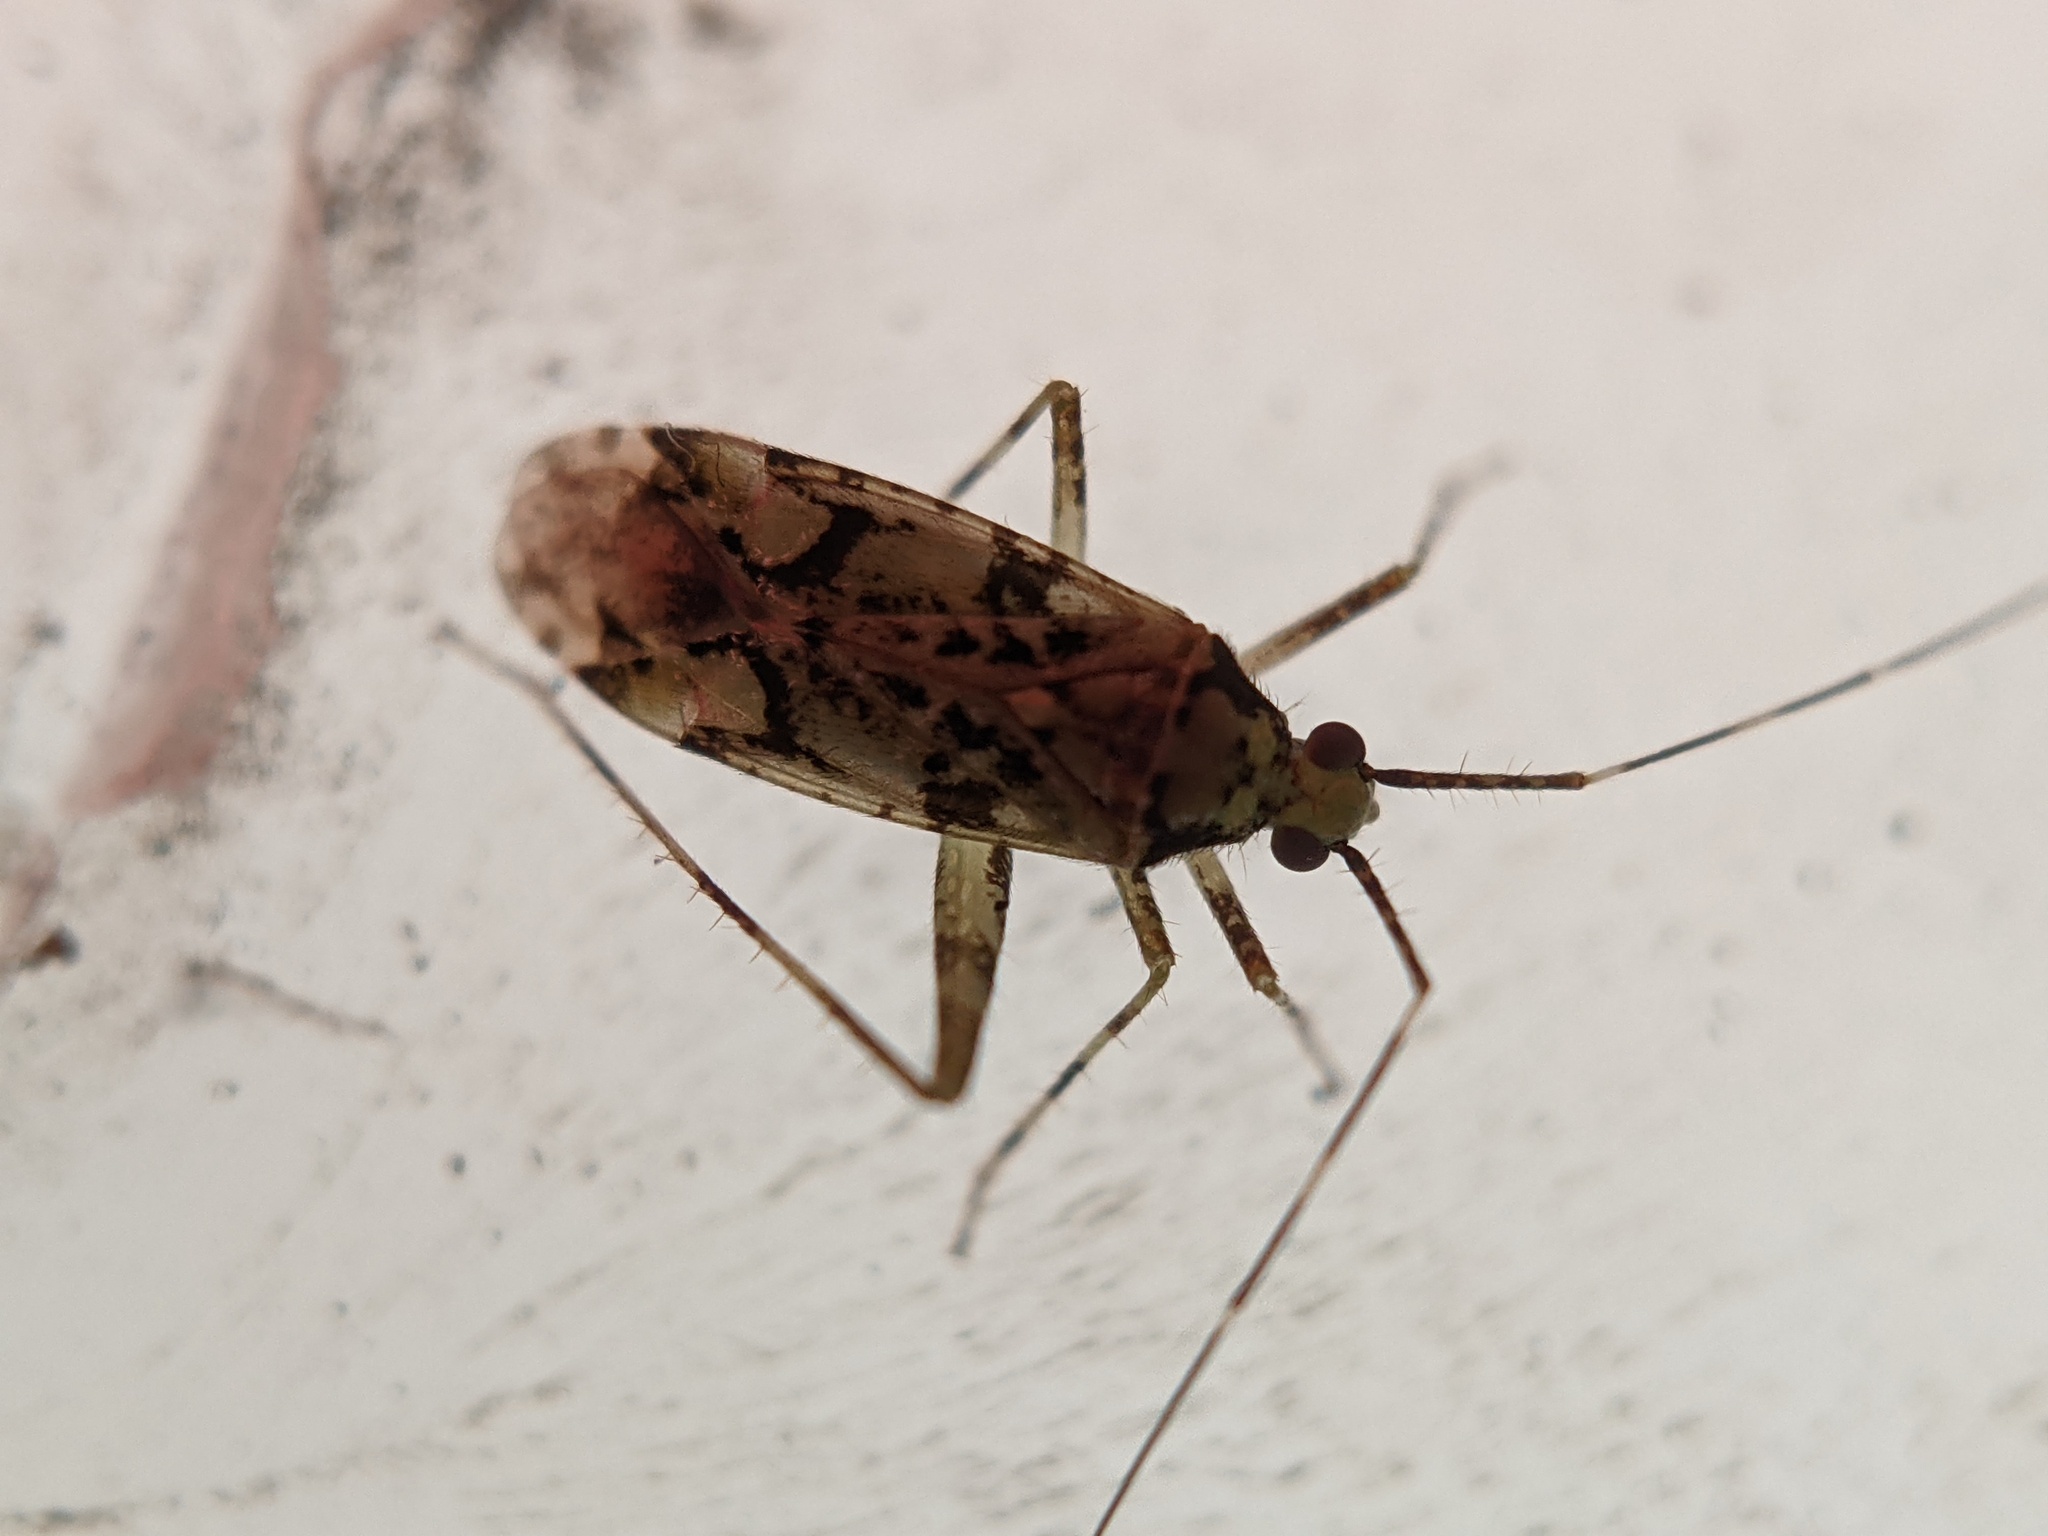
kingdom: Animalia
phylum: Arthropoda
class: Insecta
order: Hemiptera
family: Miridae
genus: Phytocoris
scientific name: Phytocoris tiliae
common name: Plant bug
